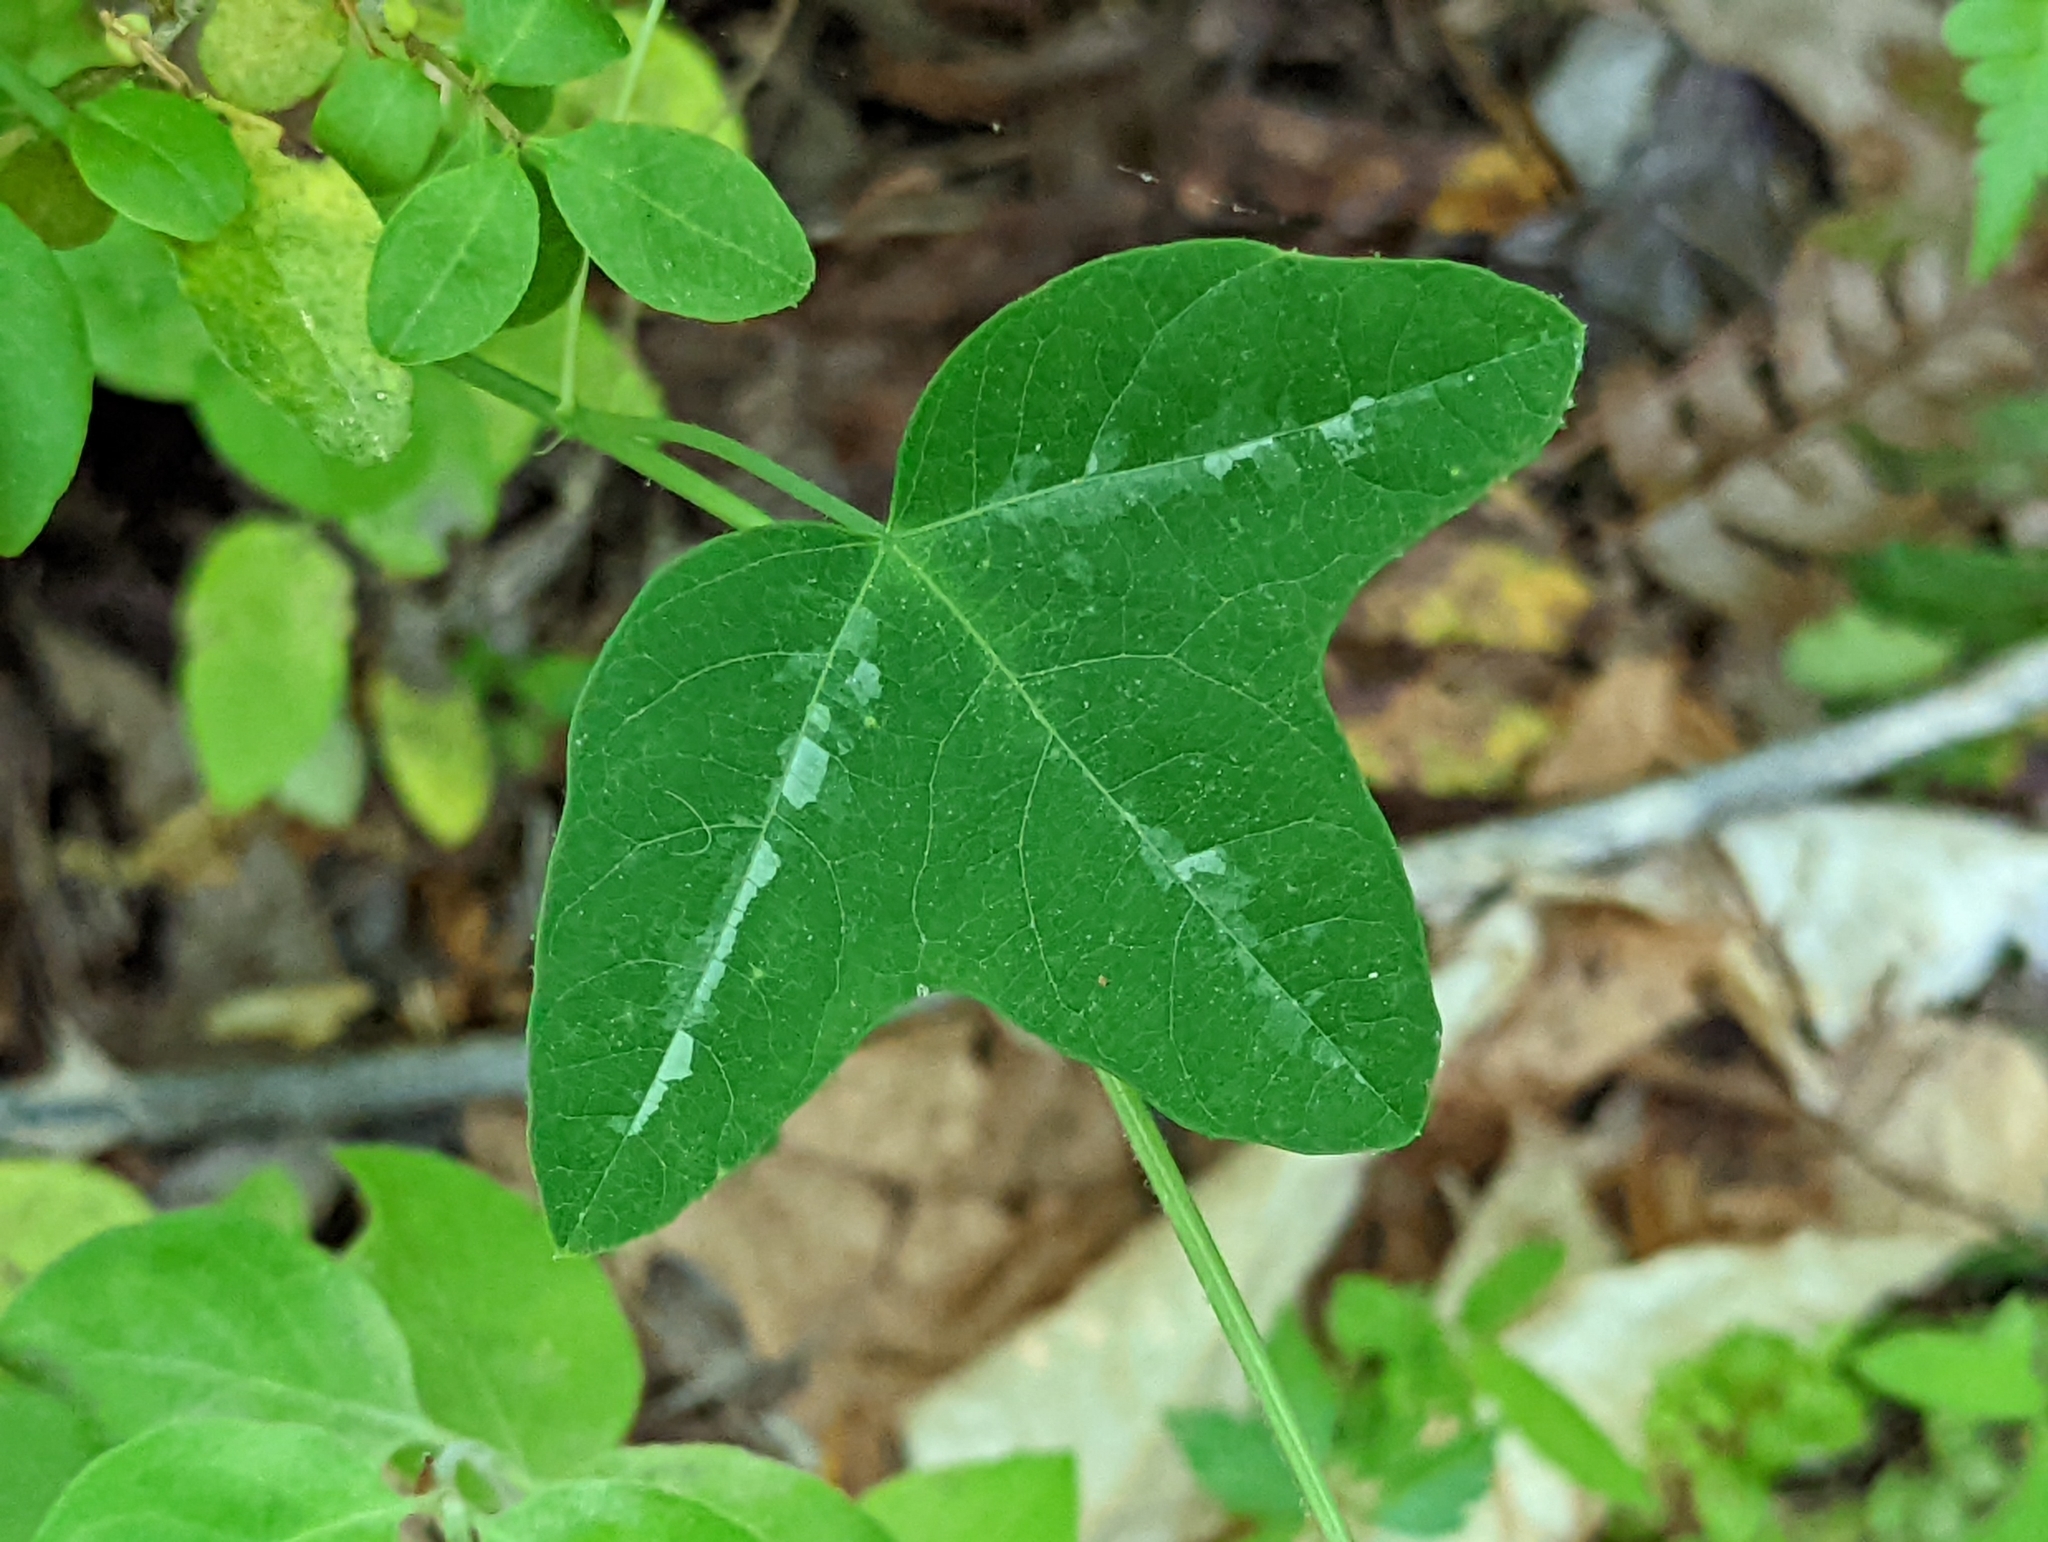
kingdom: Plantae
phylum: Tracheophyta
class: Magnoliopsida
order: Malpighiales
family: Passifloraceae
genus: Passiflora
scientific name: Passiflora lutea
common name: Yellow passionflower
